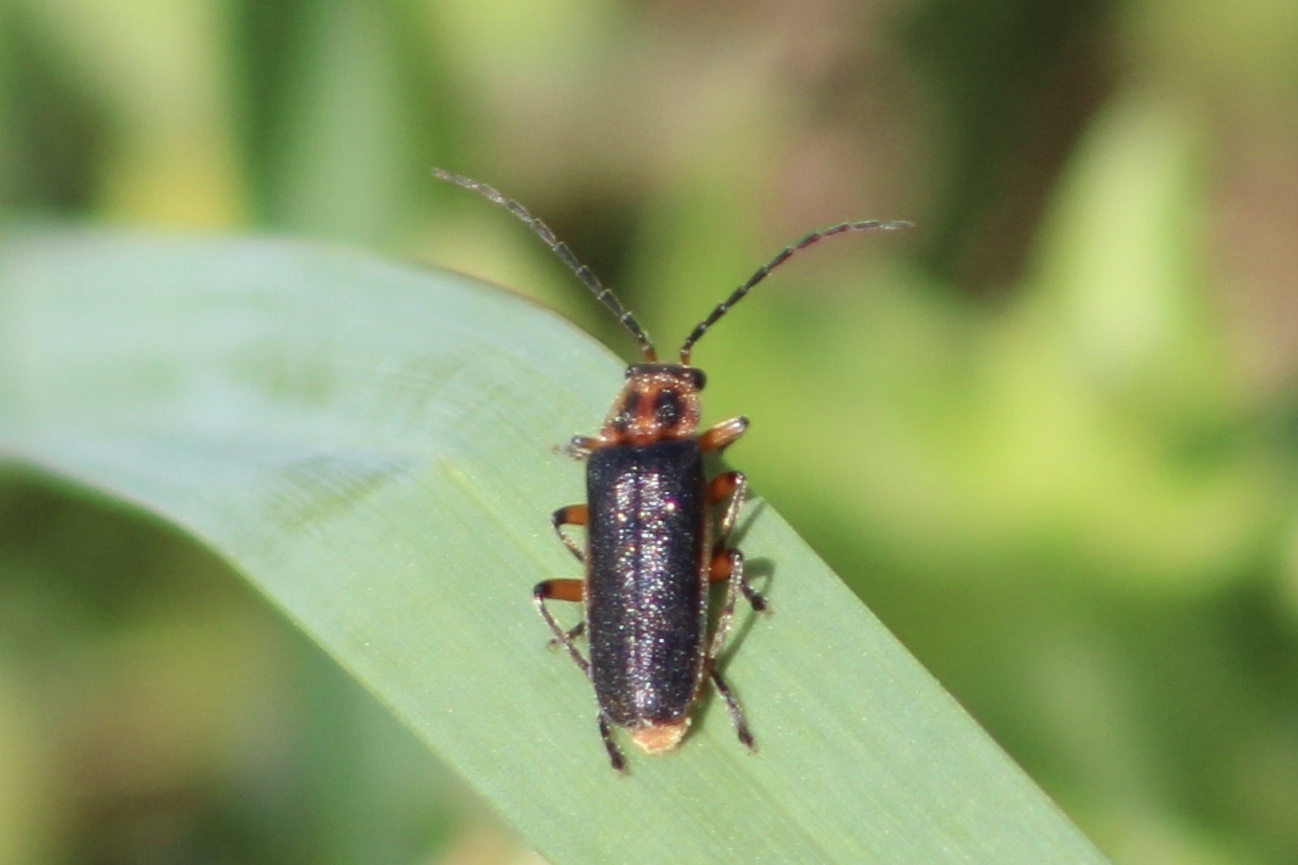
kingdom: Animalia
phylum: Arthropoda
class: Insecta
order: Coleoptera
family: Cantharidae
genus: Atalantycha
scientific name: Atalantycha bilineata
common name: Two-lined leatherwing
